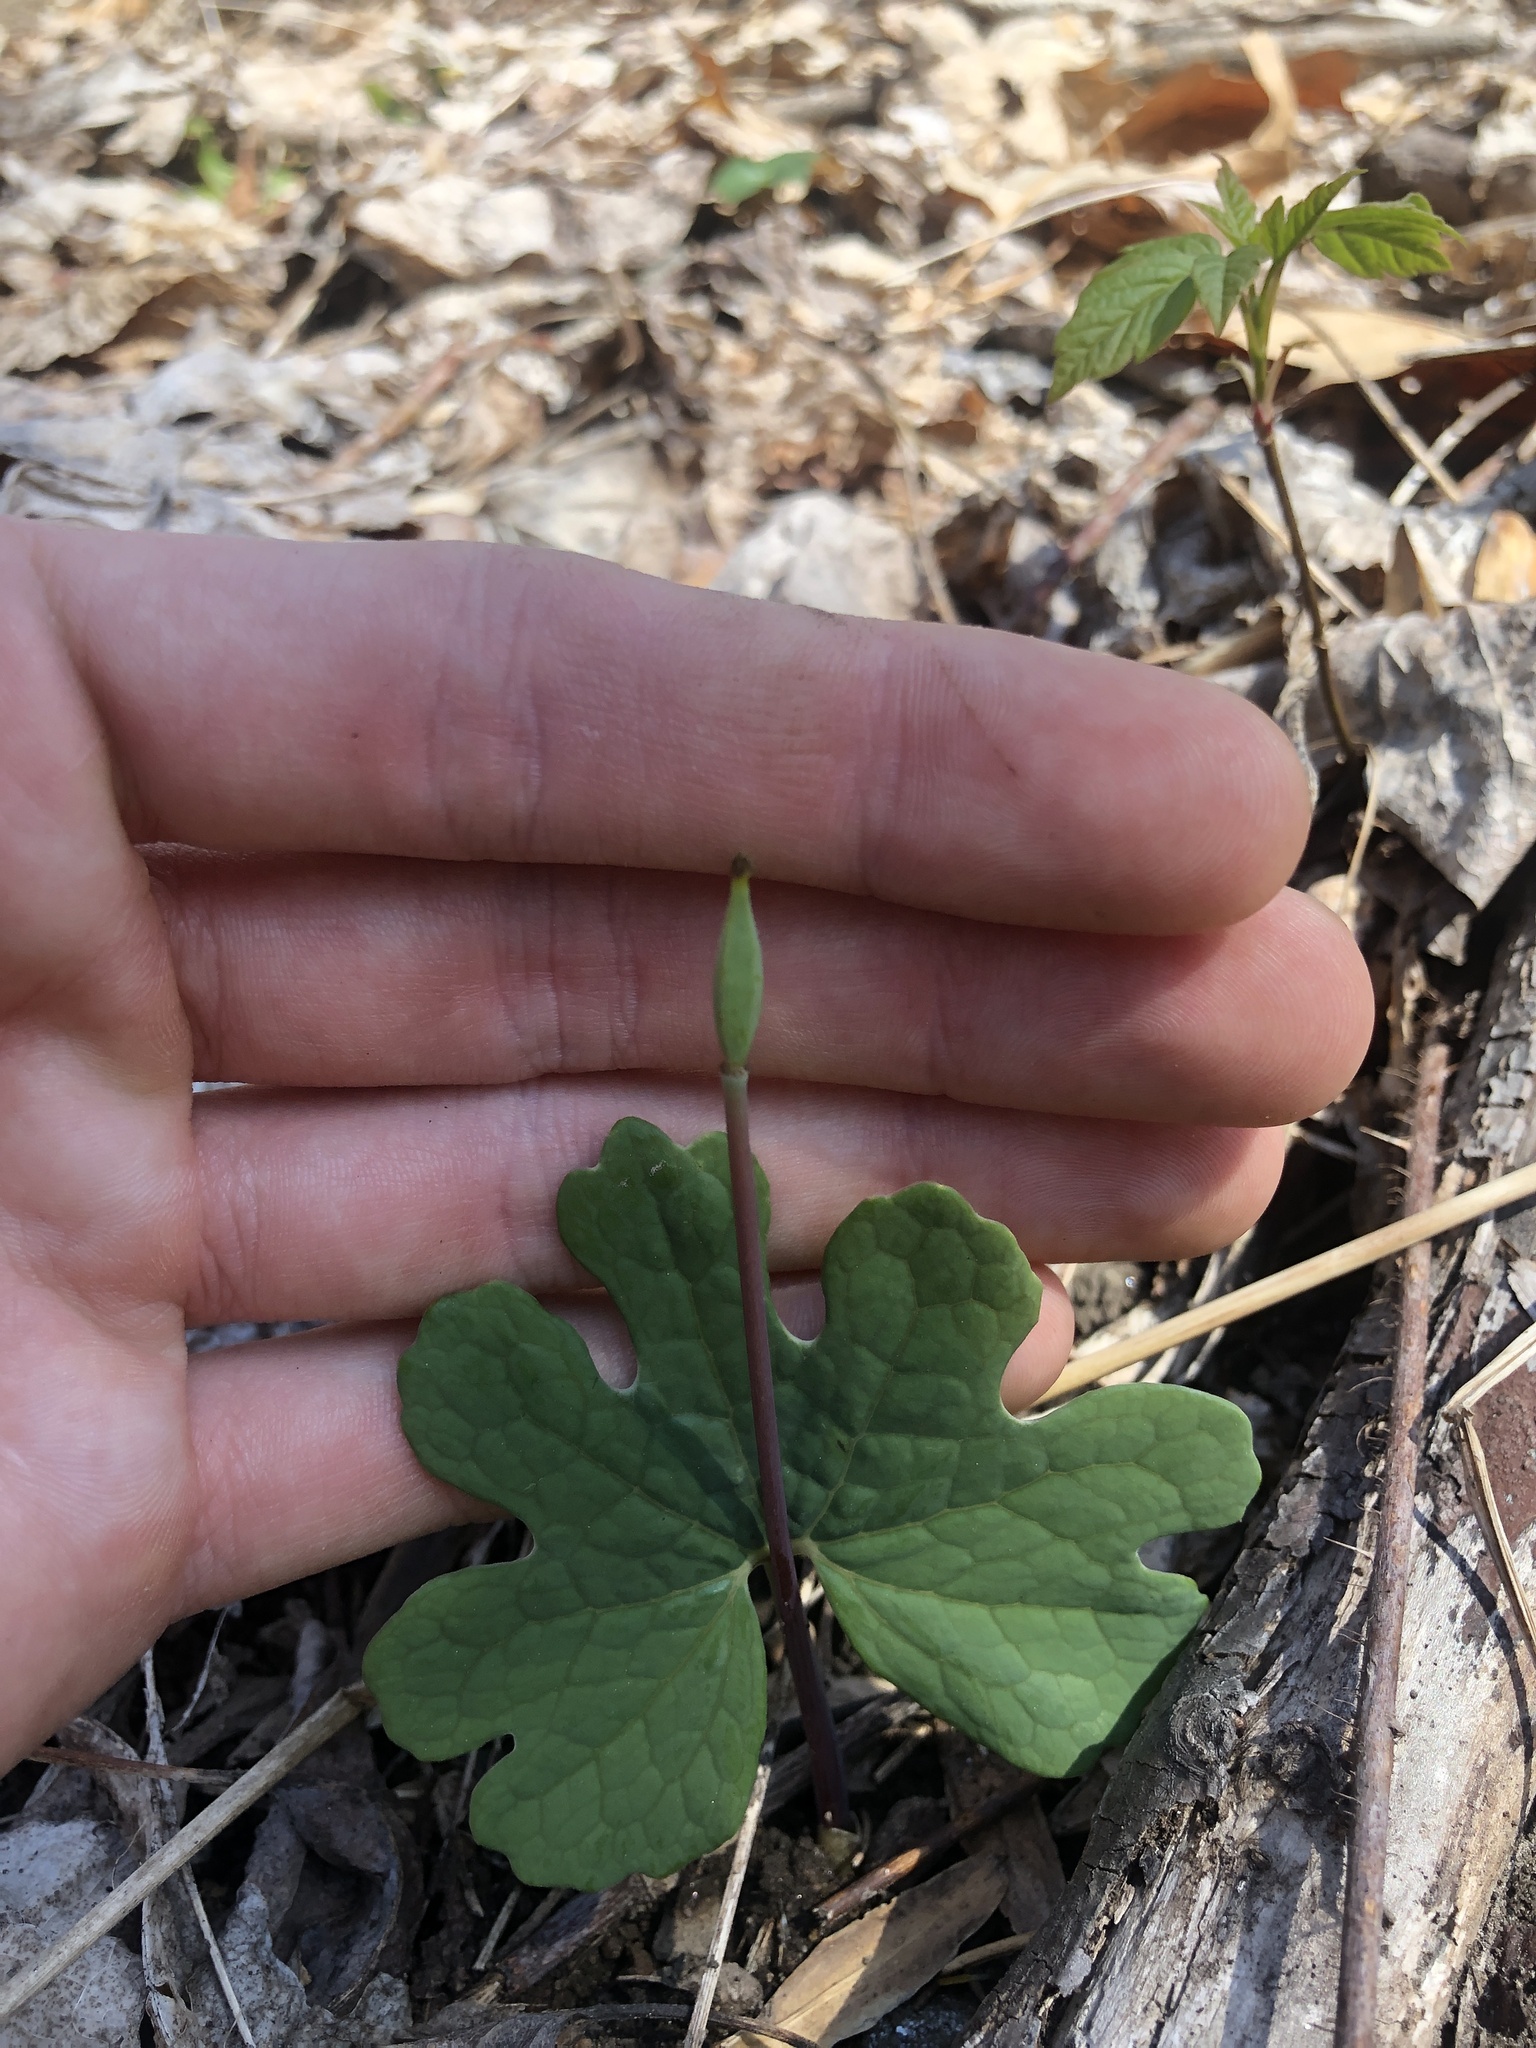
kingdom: Plantae
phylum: Tracheophyta
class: Magnoliopsida
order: Ranunculales
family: Papaveraceae
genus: Sanguinaria
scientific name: Sanguinaria canadensis
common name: Bloodroot
